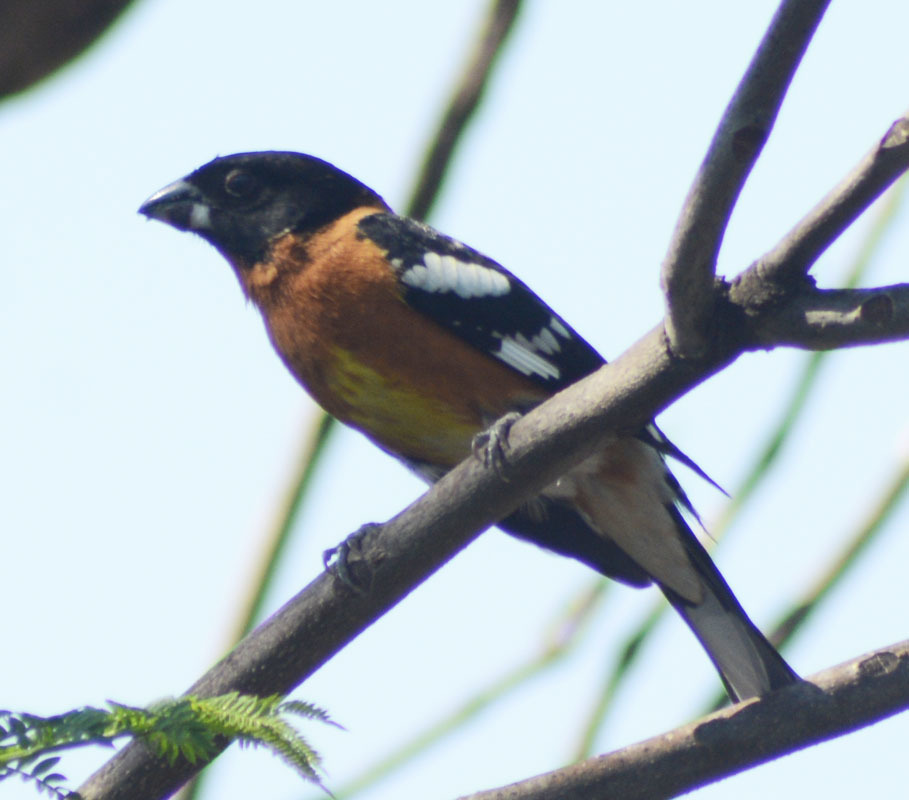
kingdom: Animalia
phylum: Chordata
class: Aves
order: Passeriformes
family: Cardinalidae
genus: Pheucticus
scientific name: Pheucticus melanocephalus
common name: Black-headed grosbeak
